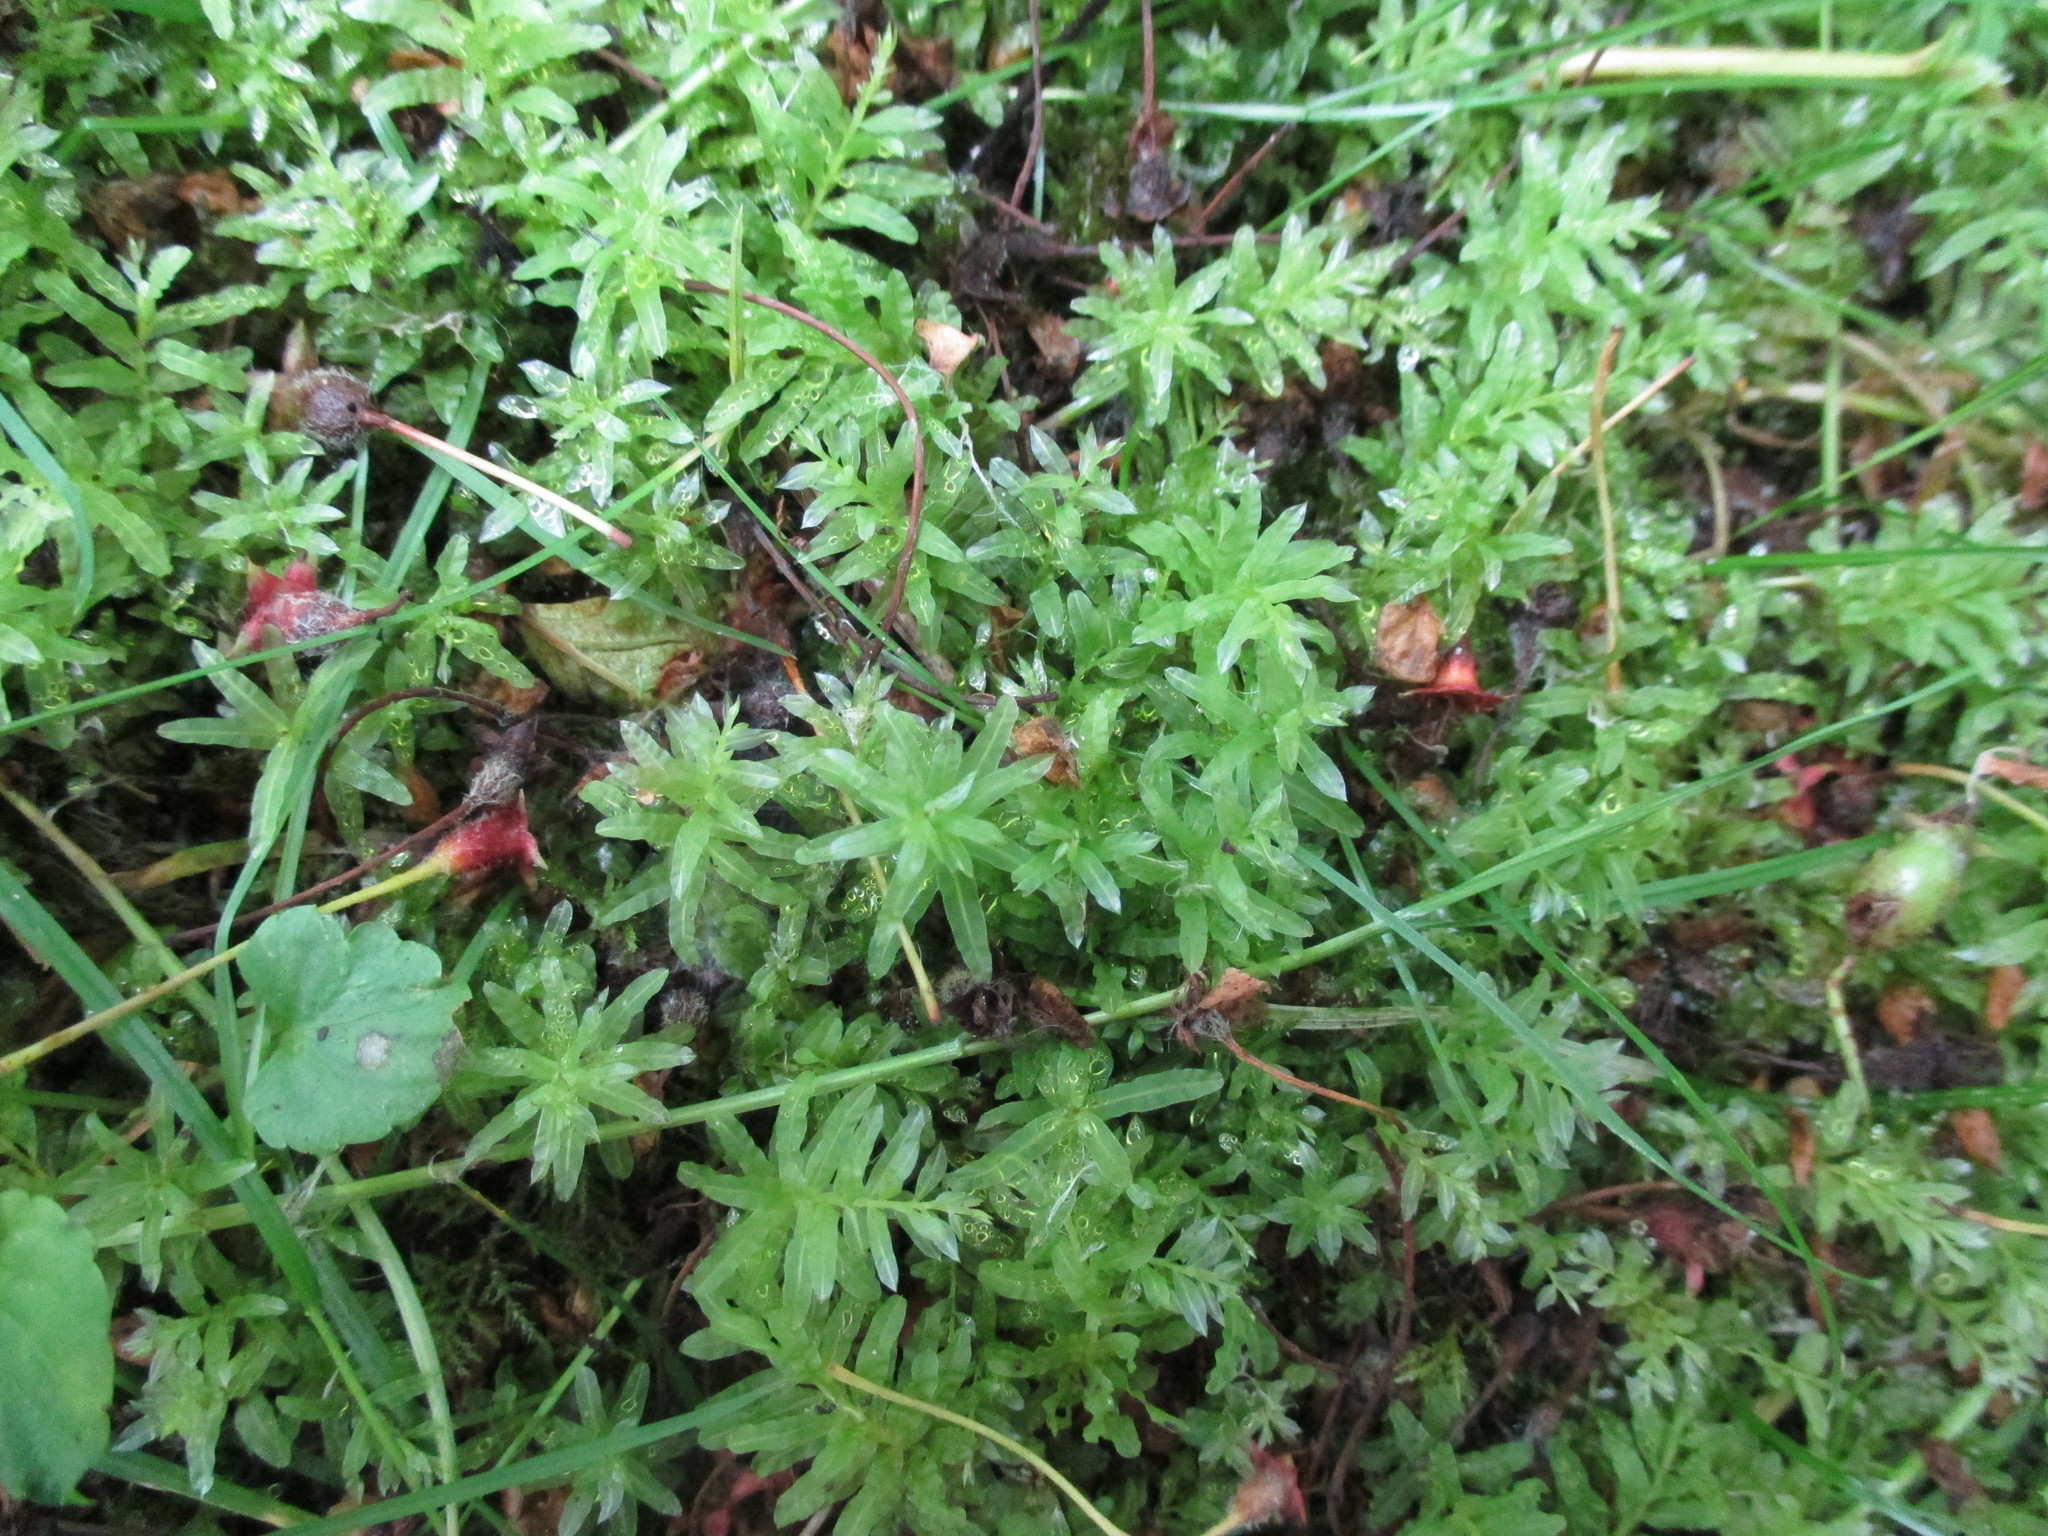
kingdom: Plantae
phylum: Bryophyta
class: Bryopsida
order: Bryales
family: Mniaceae
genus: Plagiomnium
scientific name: Plagiomnium undulatum
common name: Hart's-tongue thyme-moss
